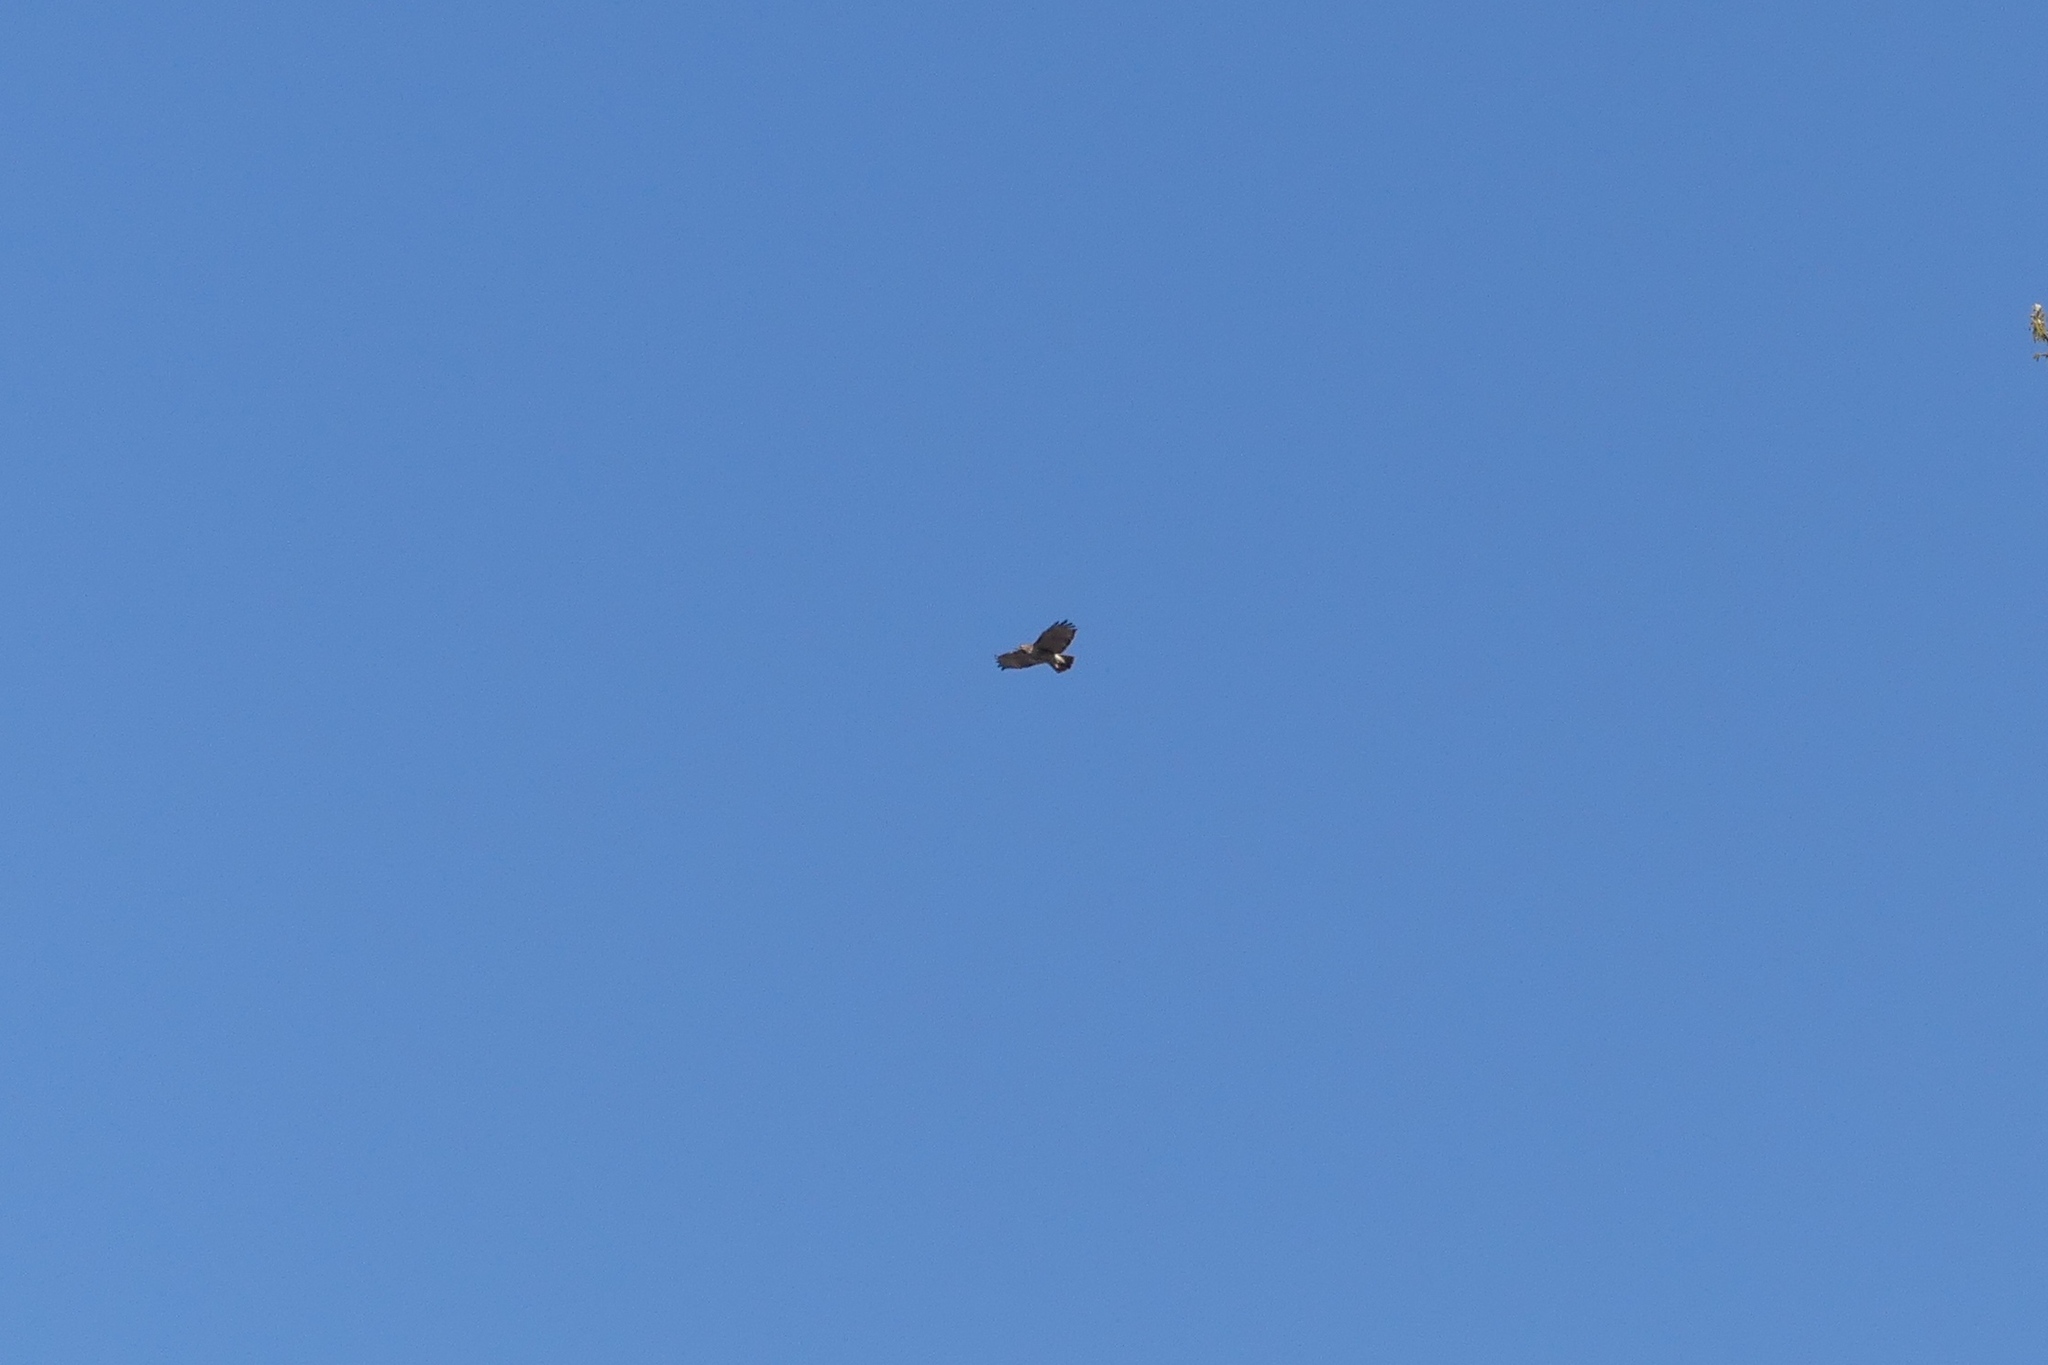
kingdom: Animalia
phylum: Chordata
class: Aves
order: Accipitriformes
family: Accipitridae
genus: Buteo
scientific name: Buteo jamaicensis
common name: Red-tailed hawk
